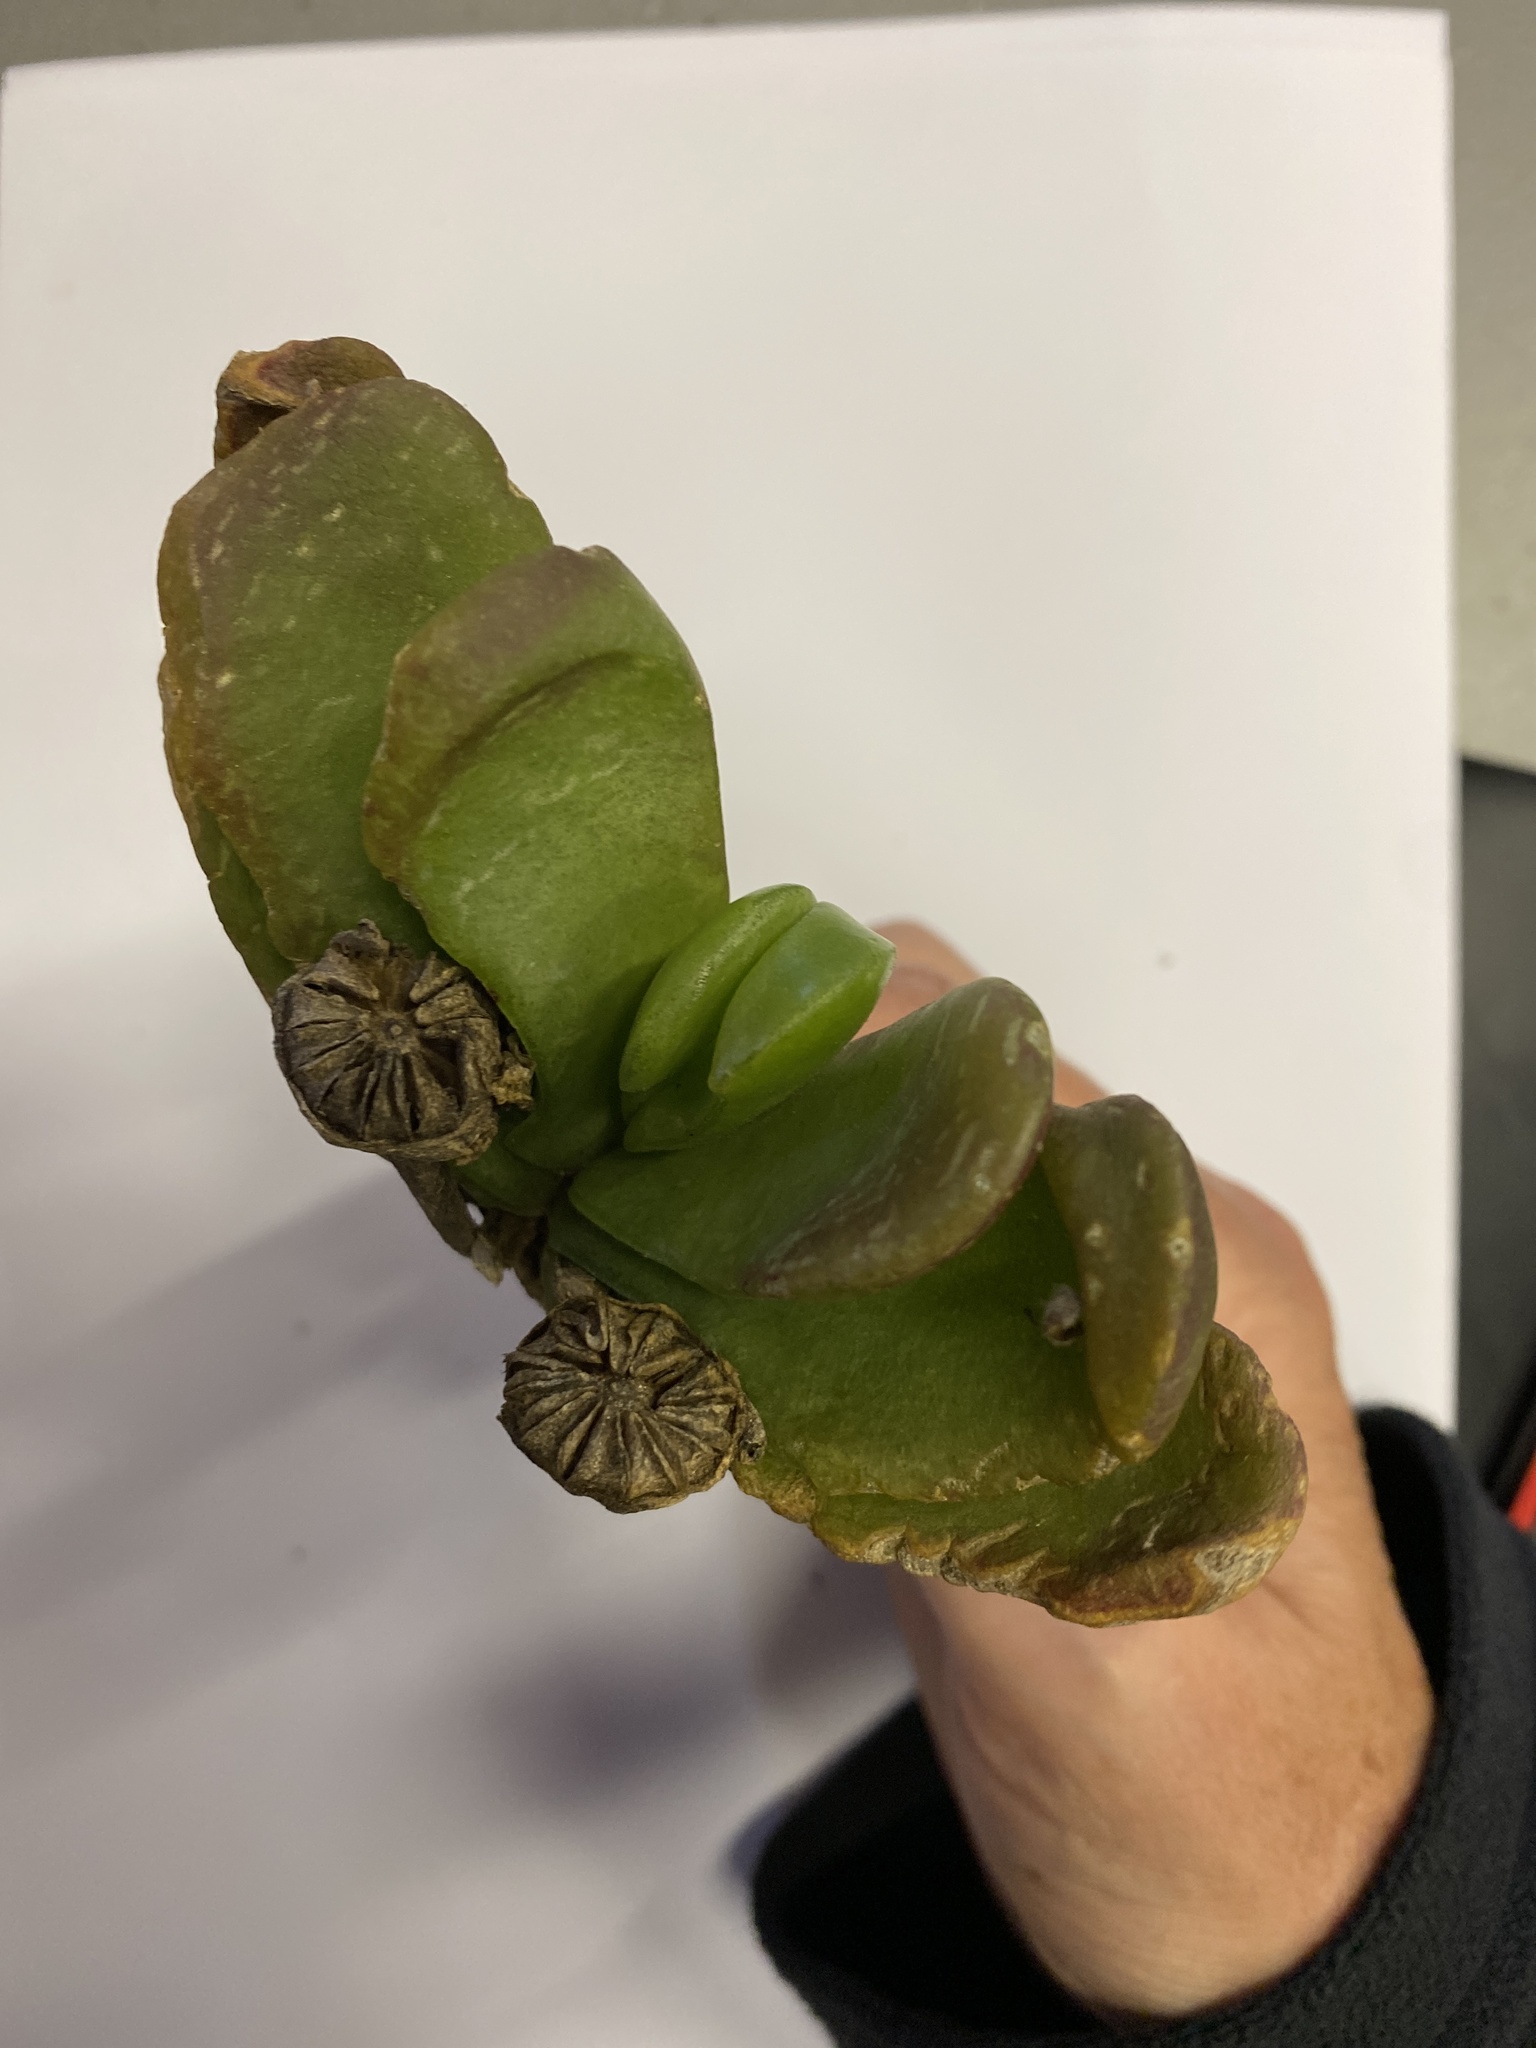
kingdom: Plantae
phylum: Tracheophyta
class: Magnoliopsida
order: Caryophyllales
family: Aizoaceae
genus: Glottiphyllum
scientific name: Glottiphyllum longum
